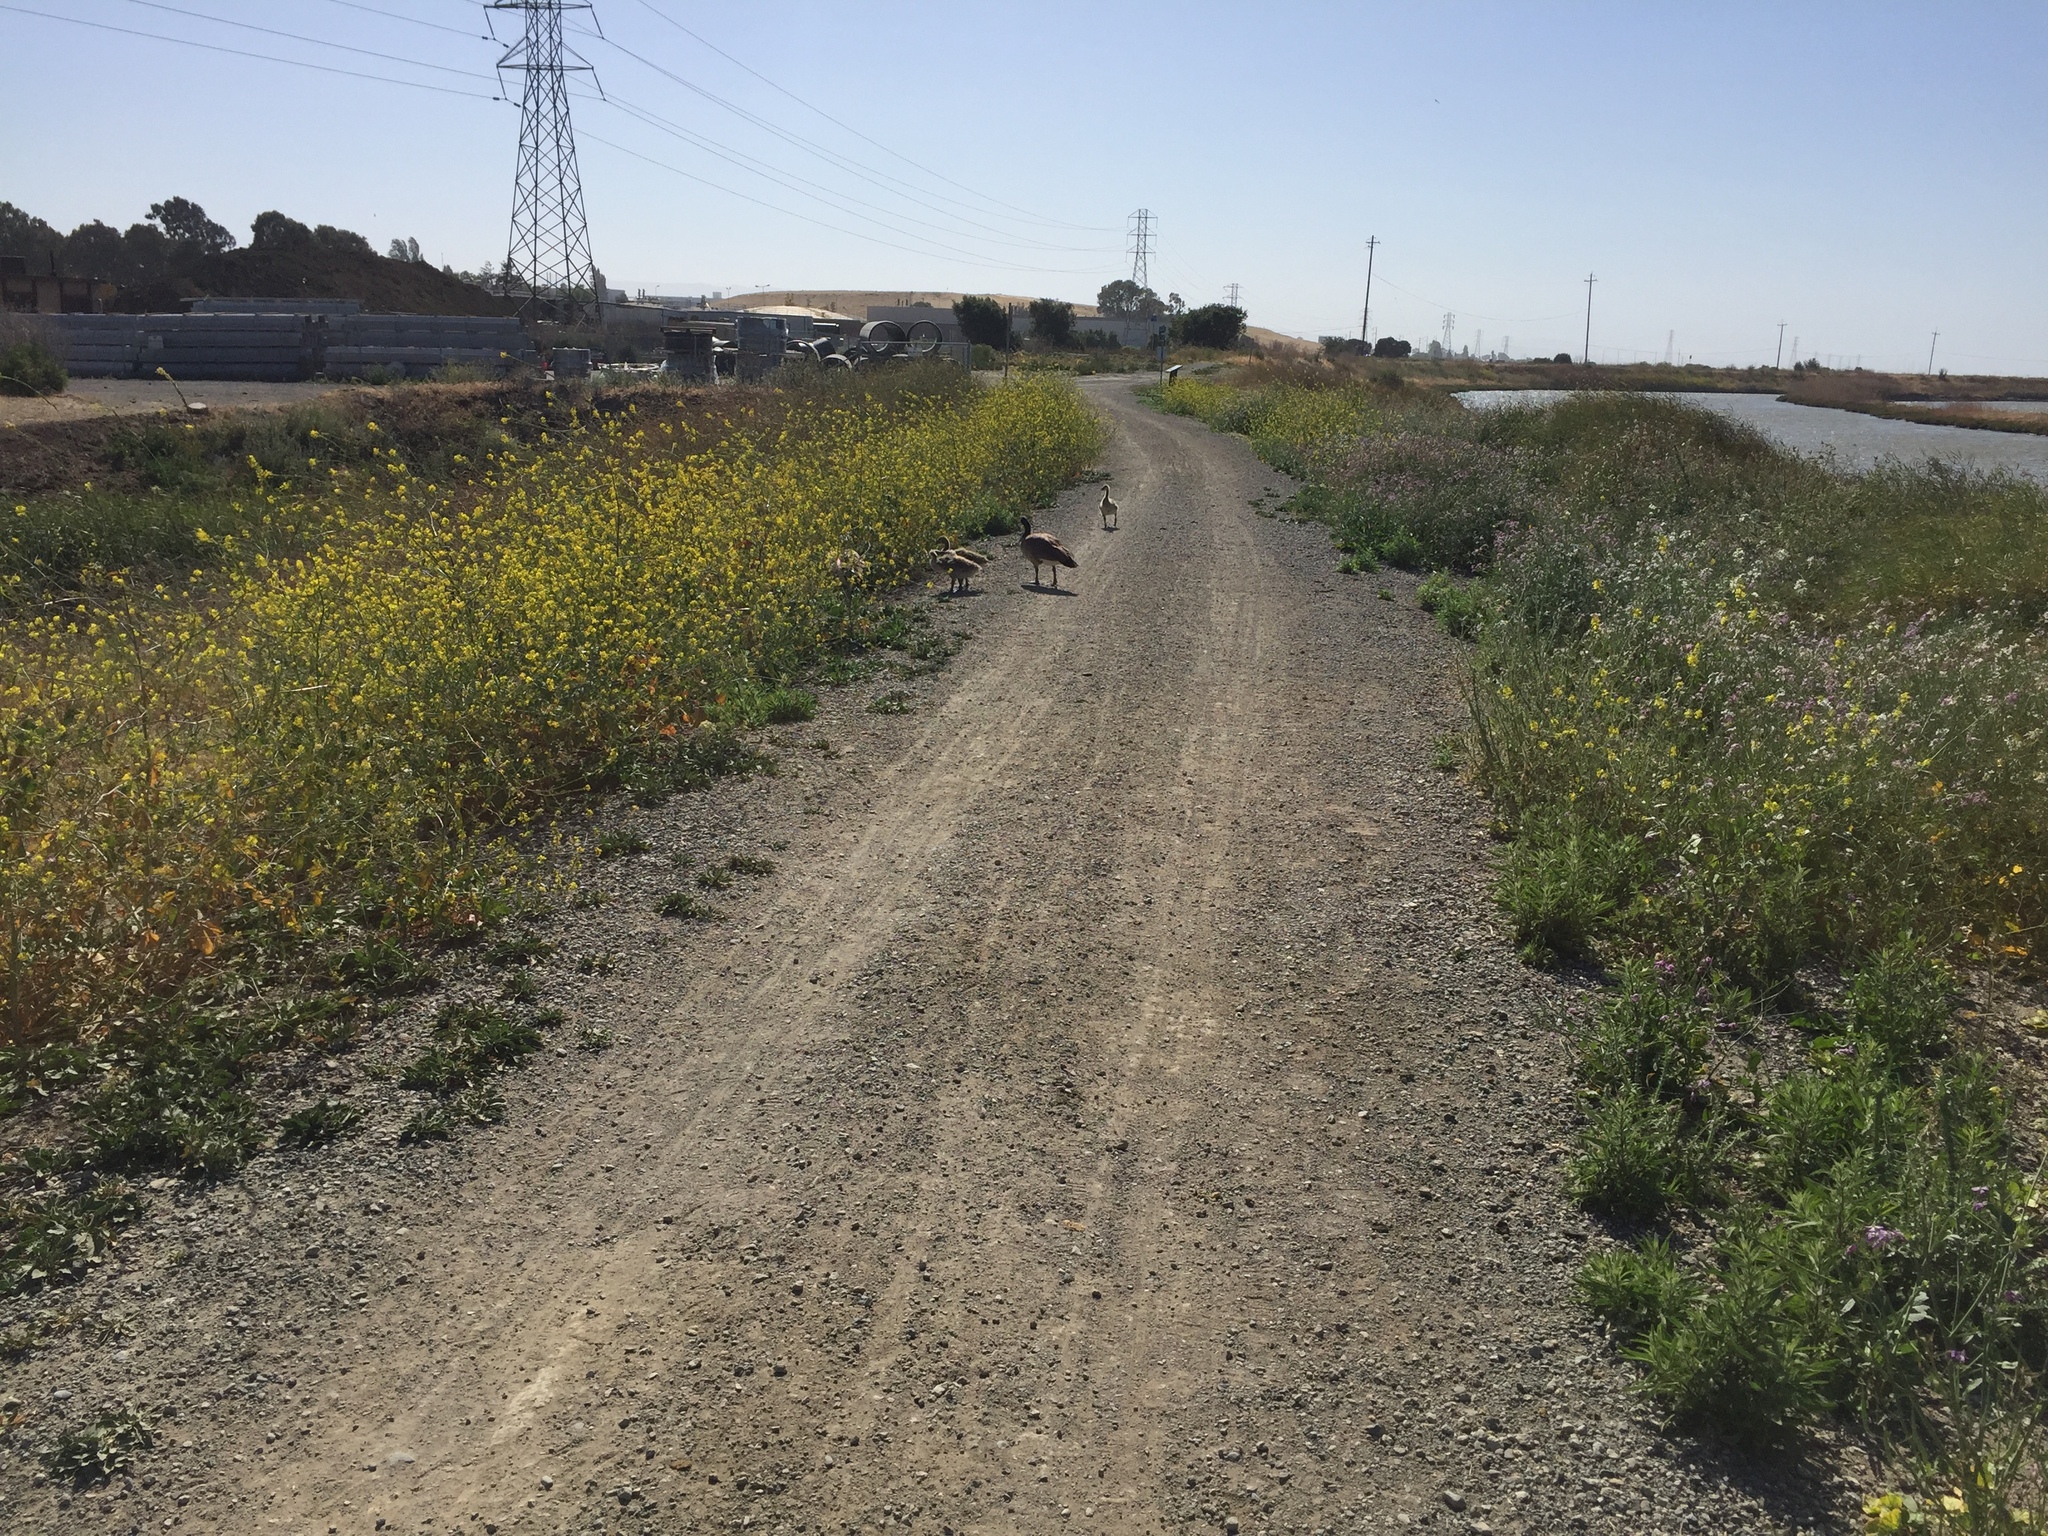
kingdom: Animalia
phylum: Chordata
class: Aves
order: Anseriformes
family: Anatidae
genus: Branta
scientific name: Branta canadensis
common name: Canada goose
